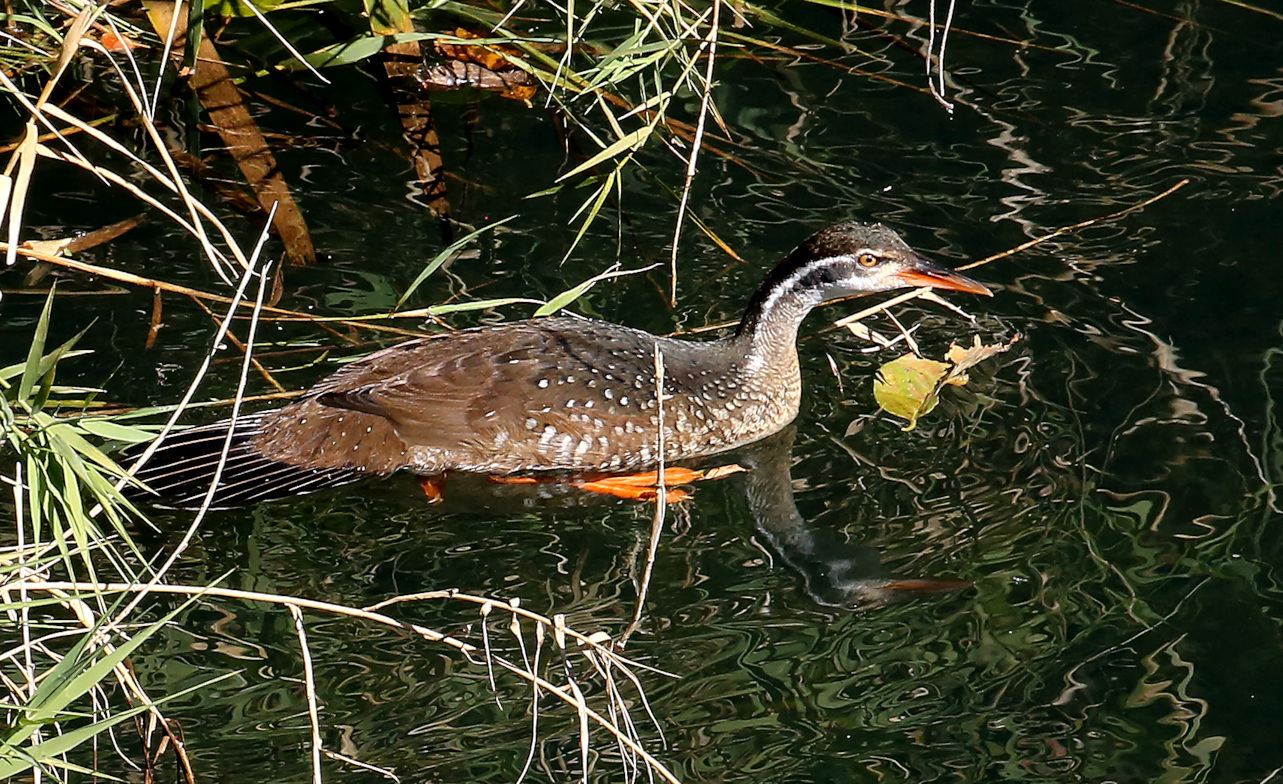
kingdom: Animalia
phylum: Chordata
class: Aves
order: Gruiformes
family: Heliornithidae
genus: Podica
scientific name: Podica senegalensis
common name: African finfoot
